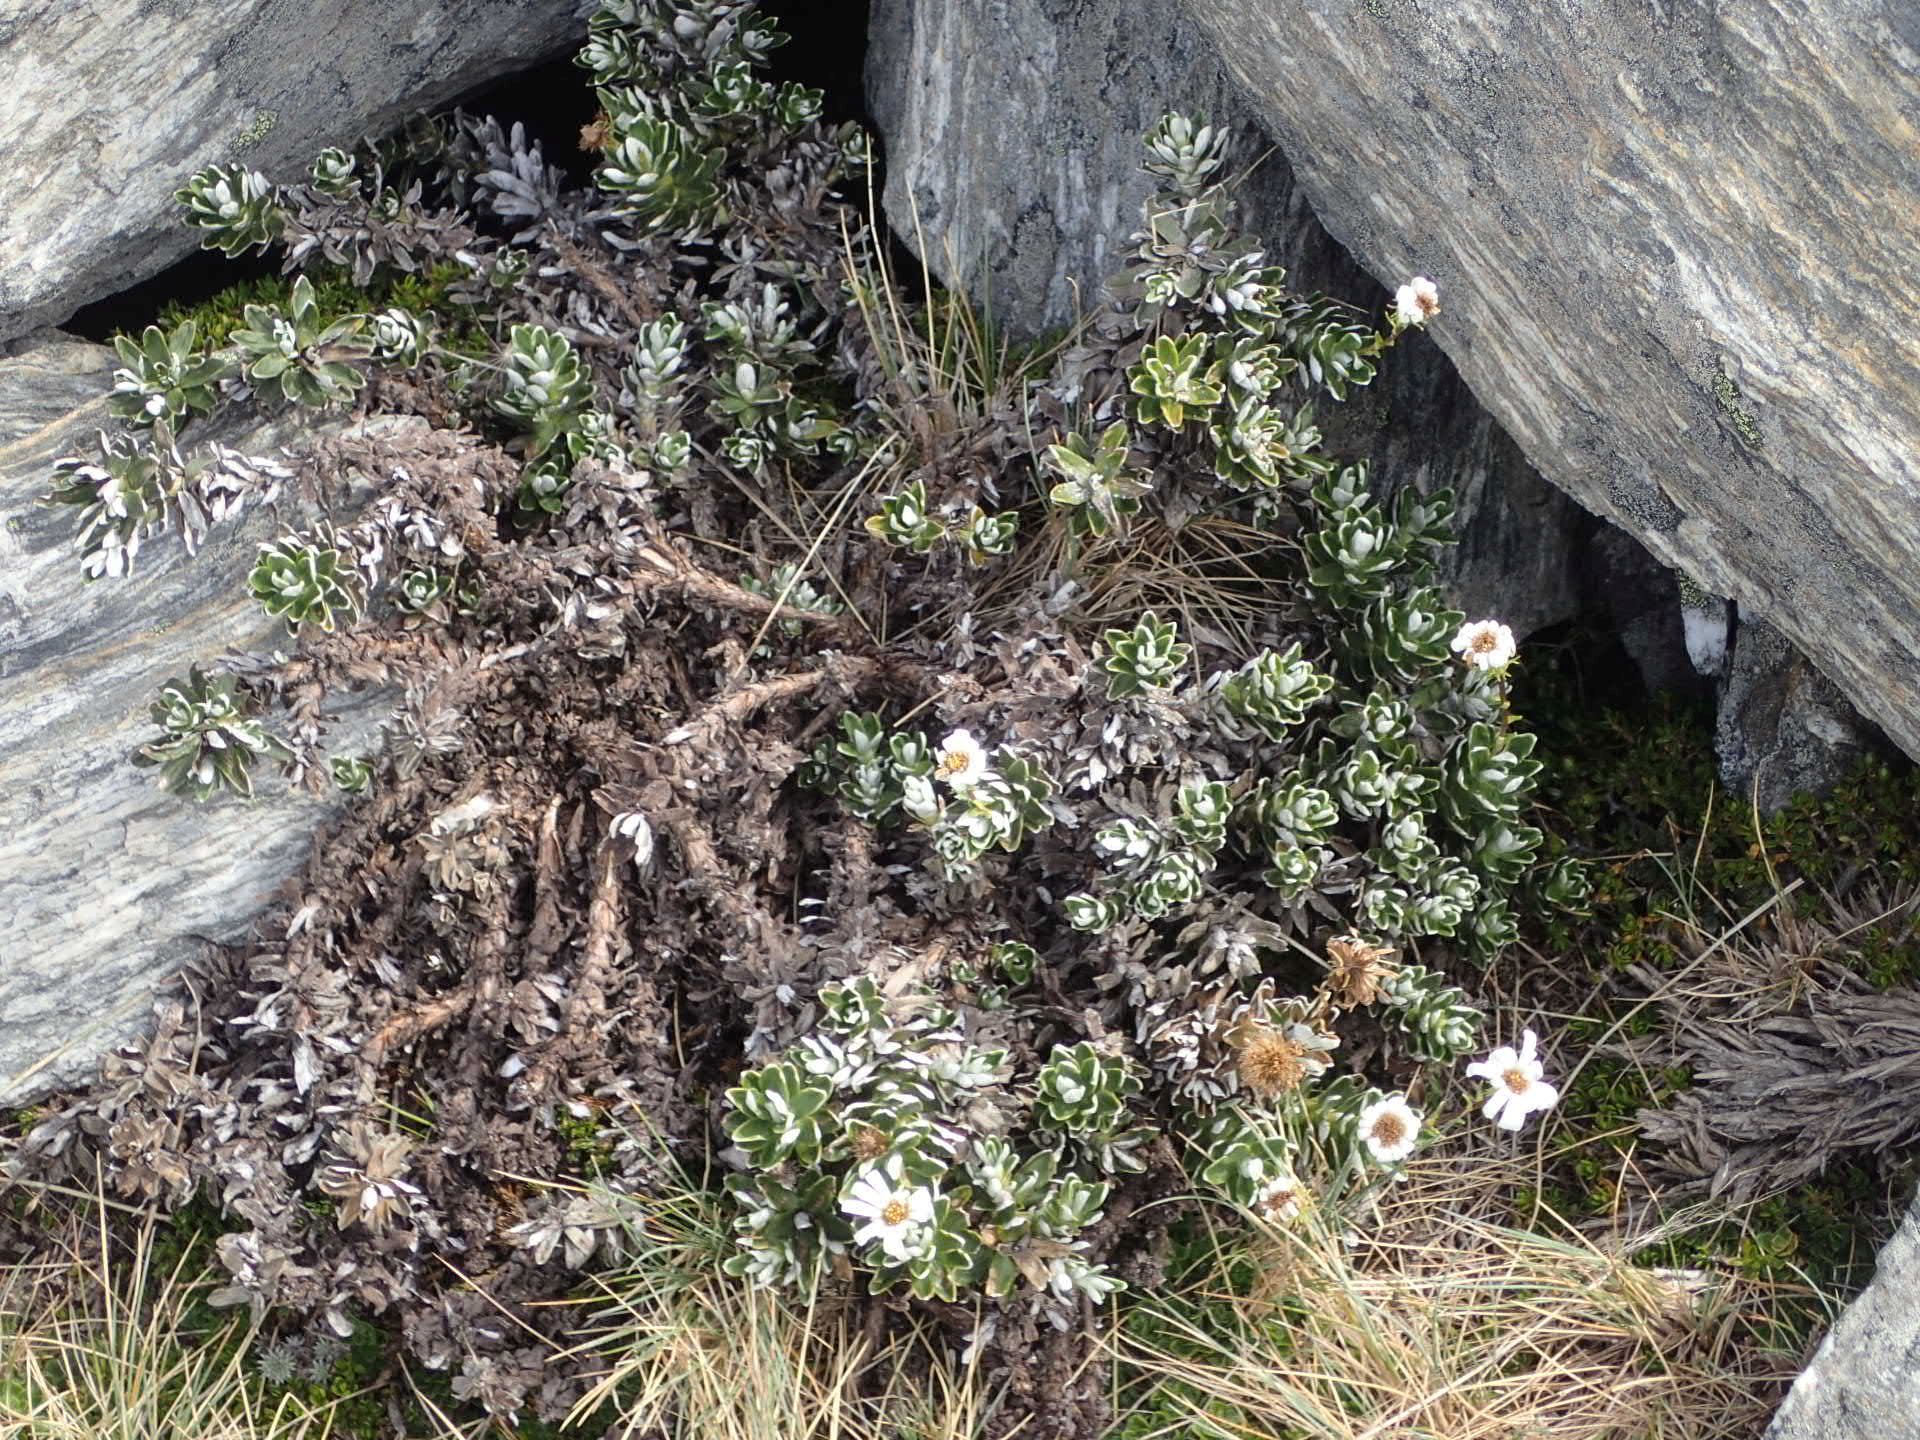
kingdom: Plantae
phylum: Tracheophyta
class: Magnoliopsida
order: Asterales
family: Asteraceae
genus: Celmisia
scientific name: Celmisia angustifolia
